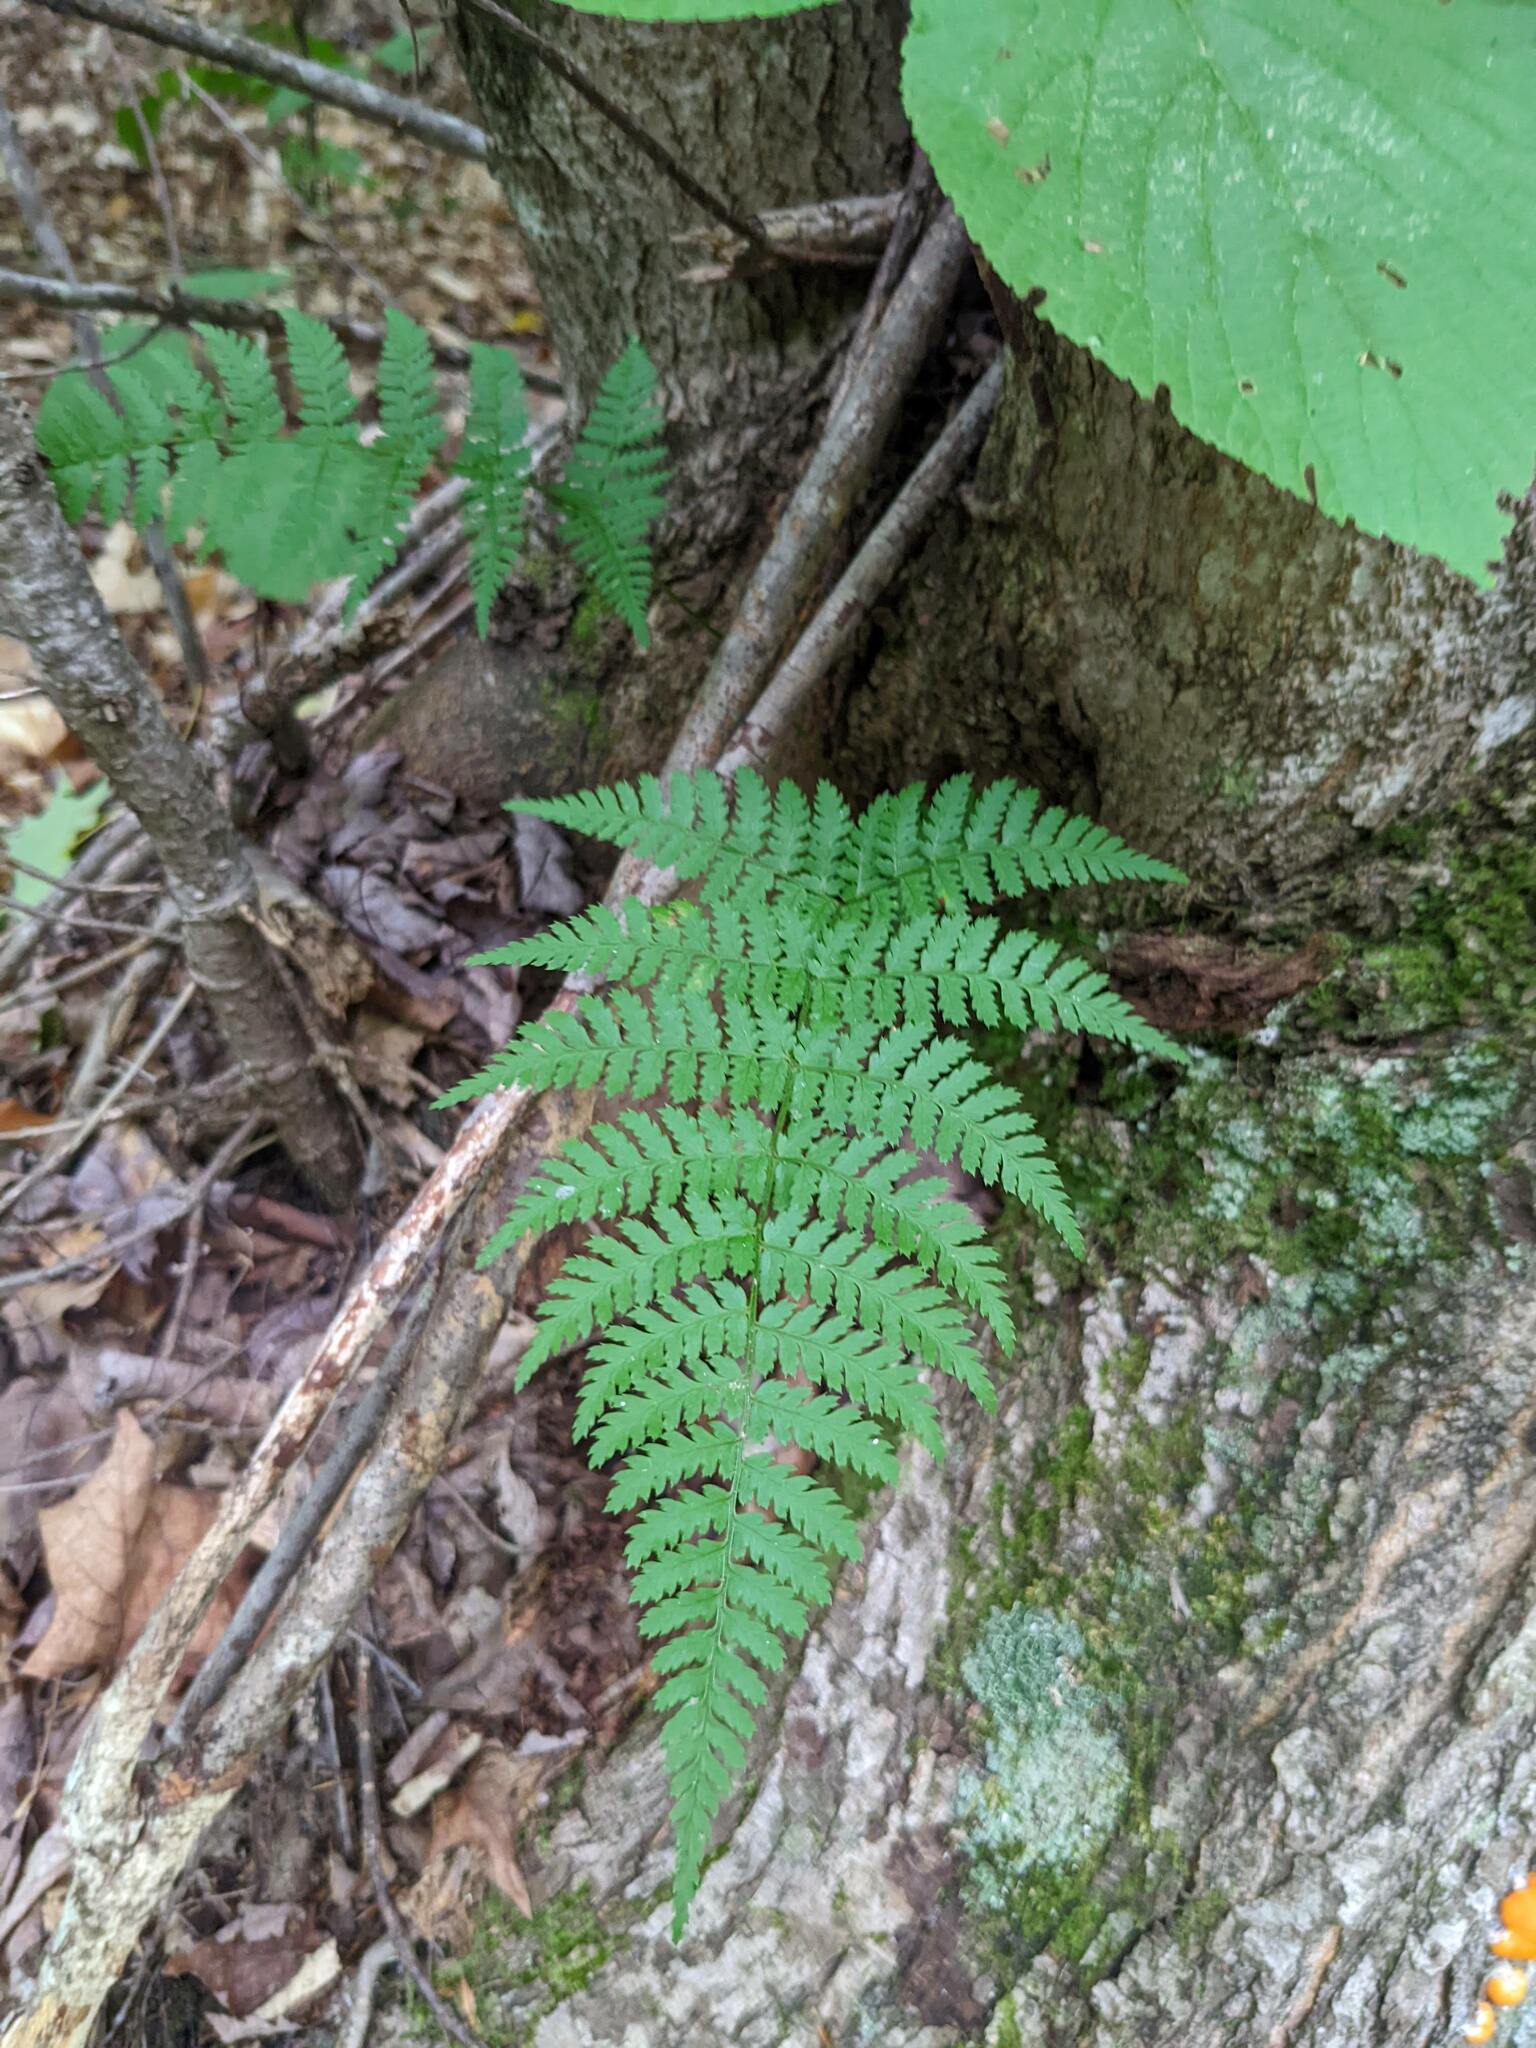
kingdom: Plantae
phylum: Tracheophyta
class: Polypodiopsida
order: Polypodiales
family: Dryopteridaceae
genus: Dryopteris
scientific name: Dryopteris intermedia
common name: Evergreen wood fern
